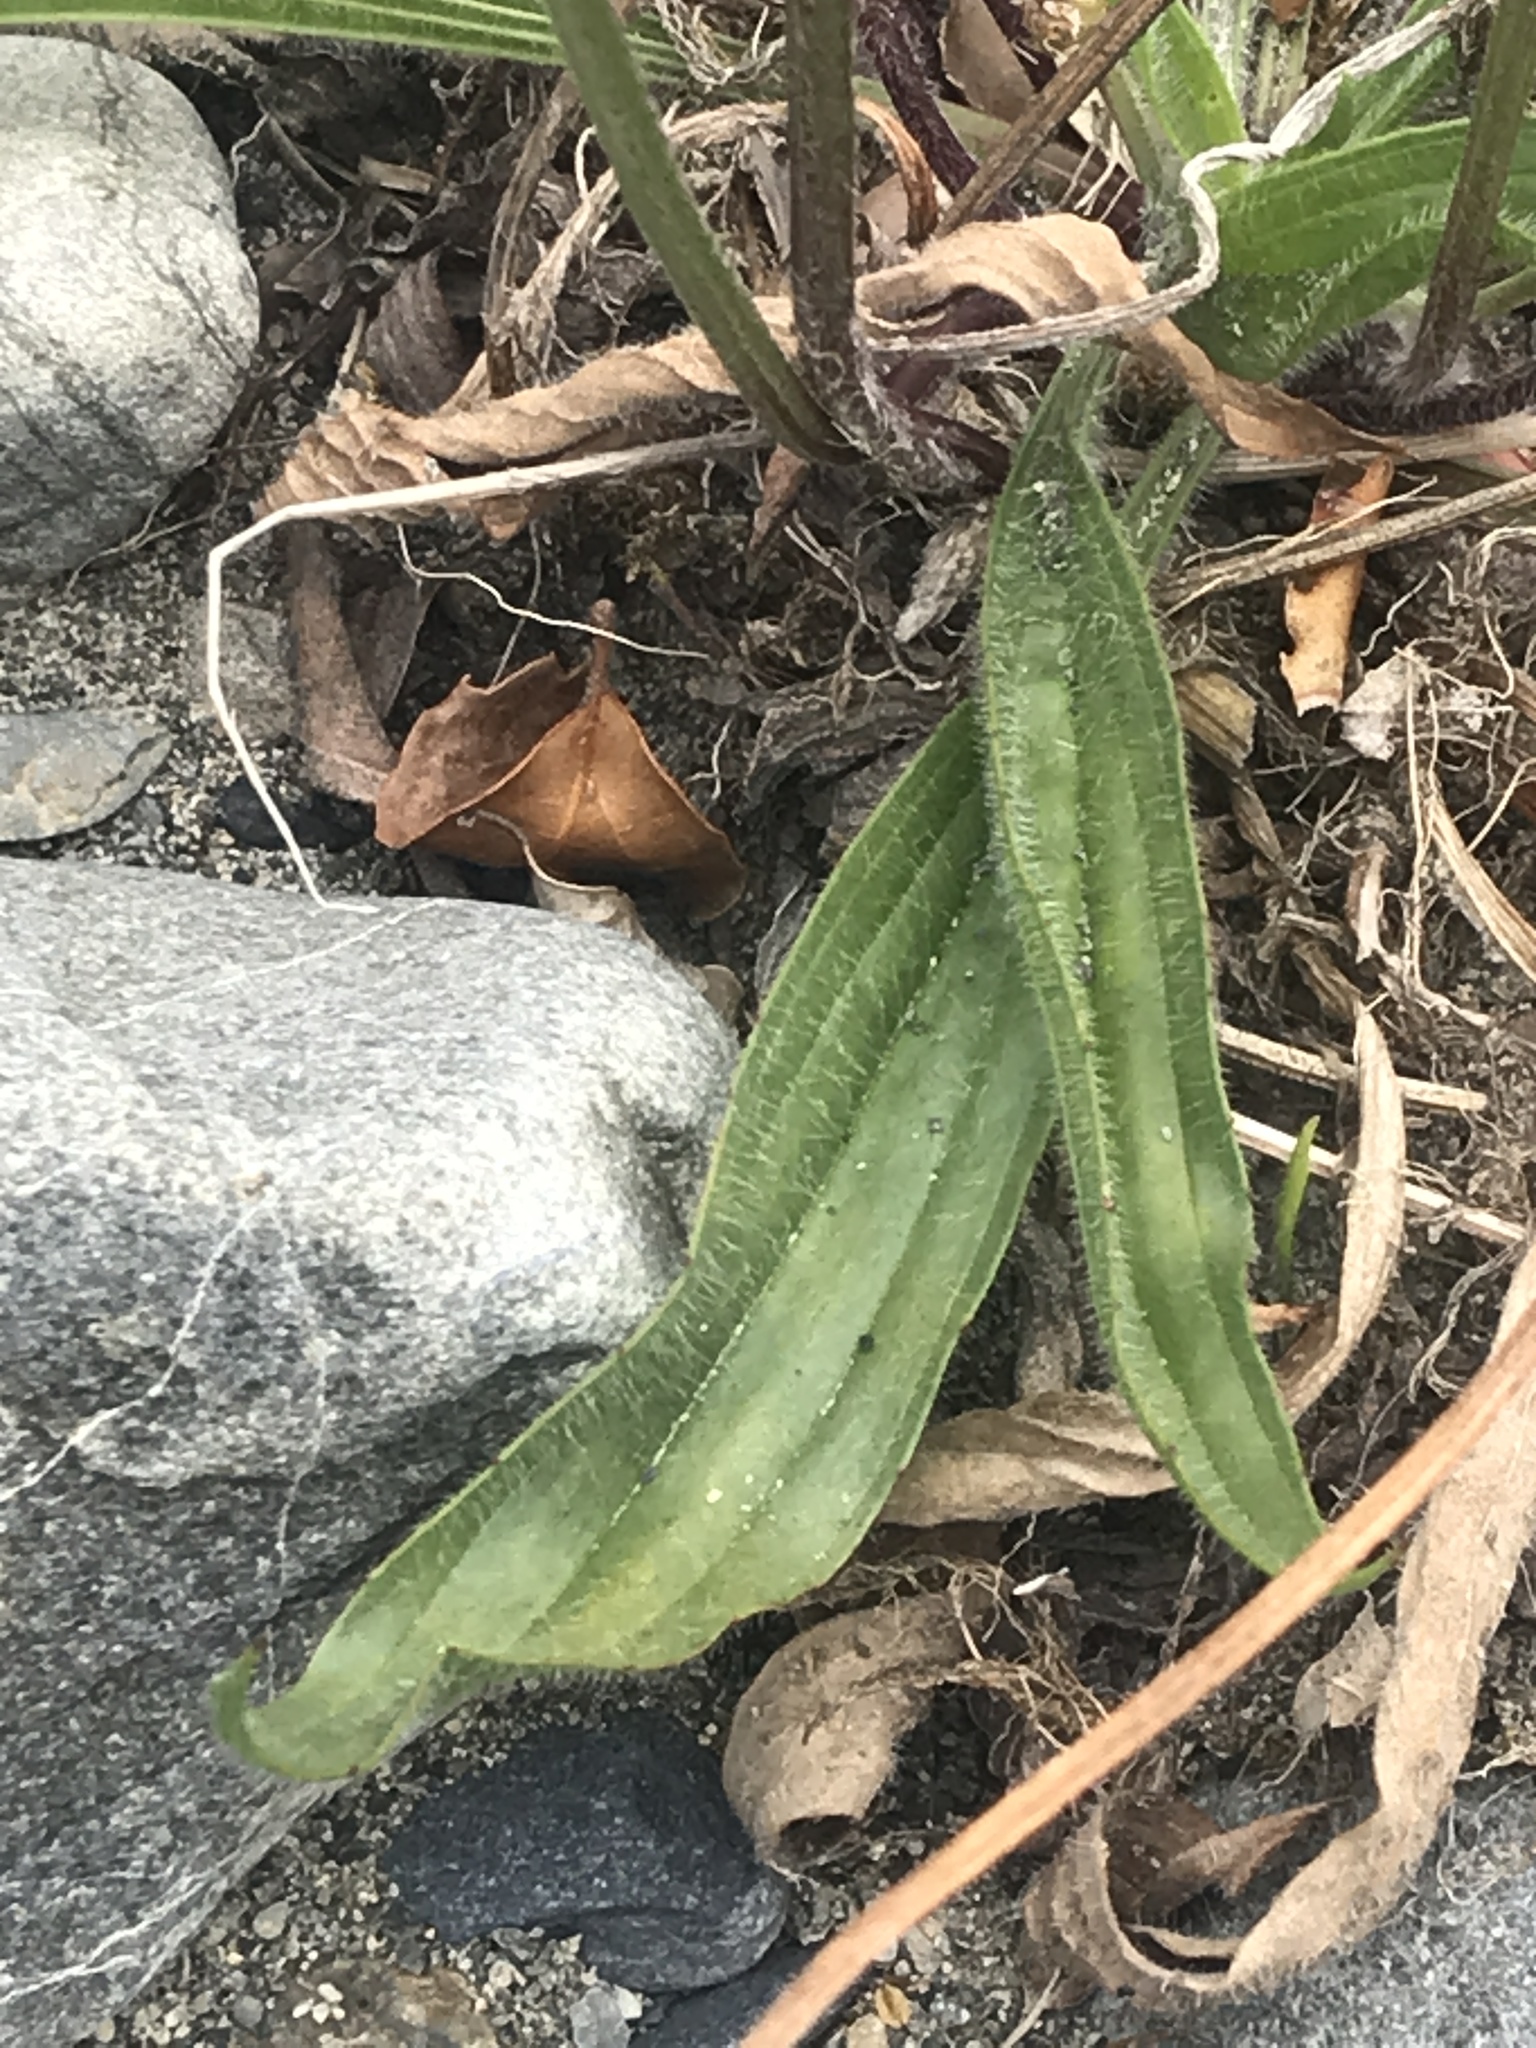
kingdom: Plantae
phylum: Tracheophyta
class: Magnoliopsida
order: Lamiales
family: Plantaginaceae
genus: Plantago
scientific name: Plantago lanceolata
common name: Ribwort plantain
